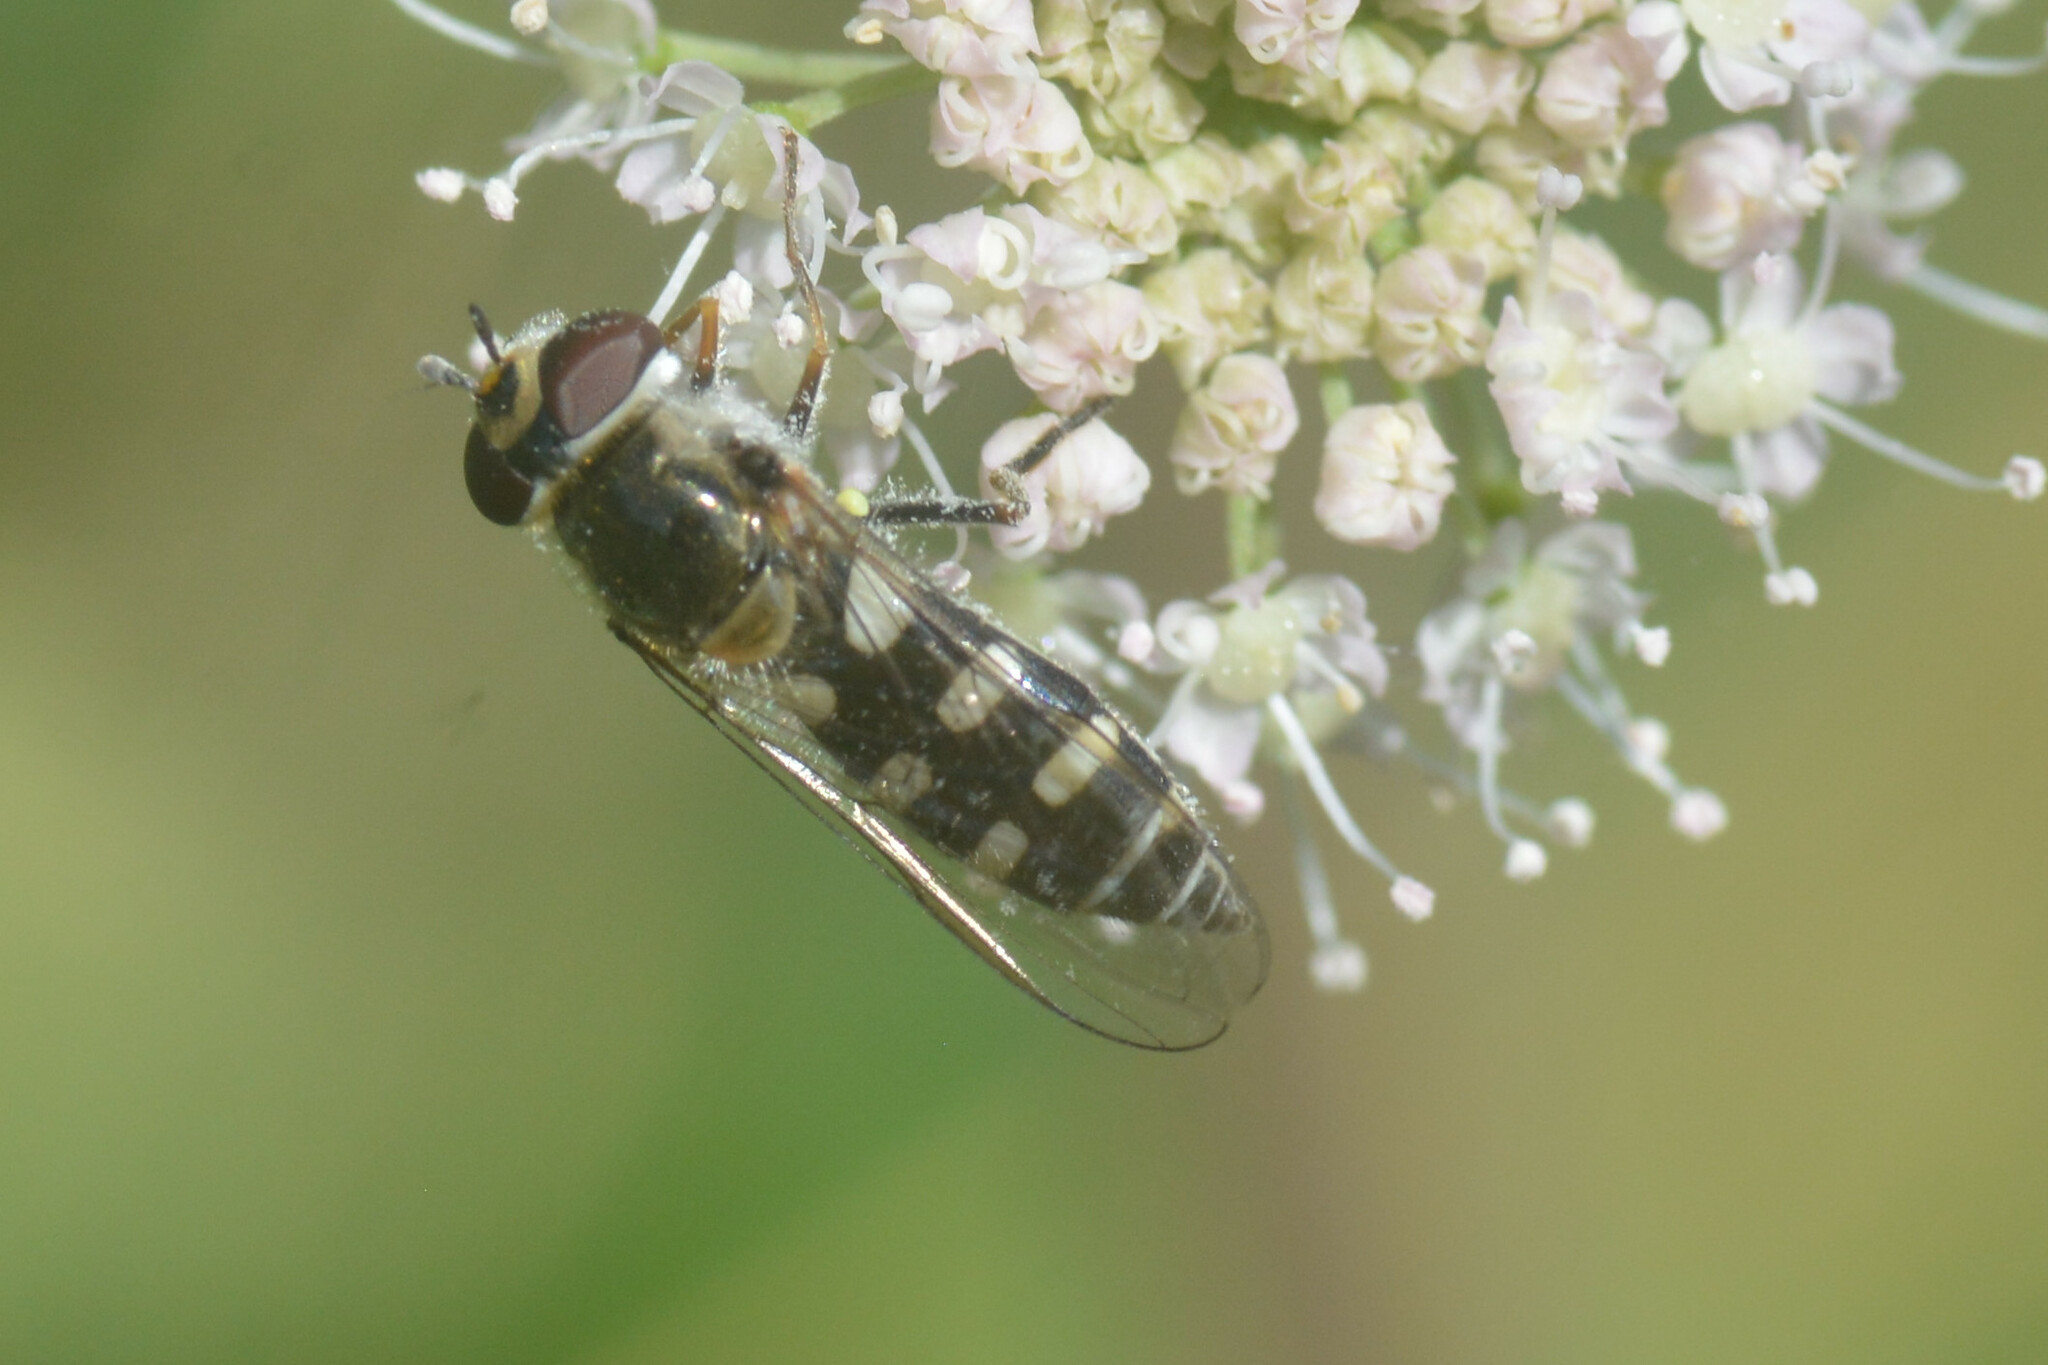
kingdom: Animalia
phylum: Arthropoda
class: Insecta
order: Diptera
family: Syrphidae
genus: Melangyna
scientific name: Melangyna umbellatarum
